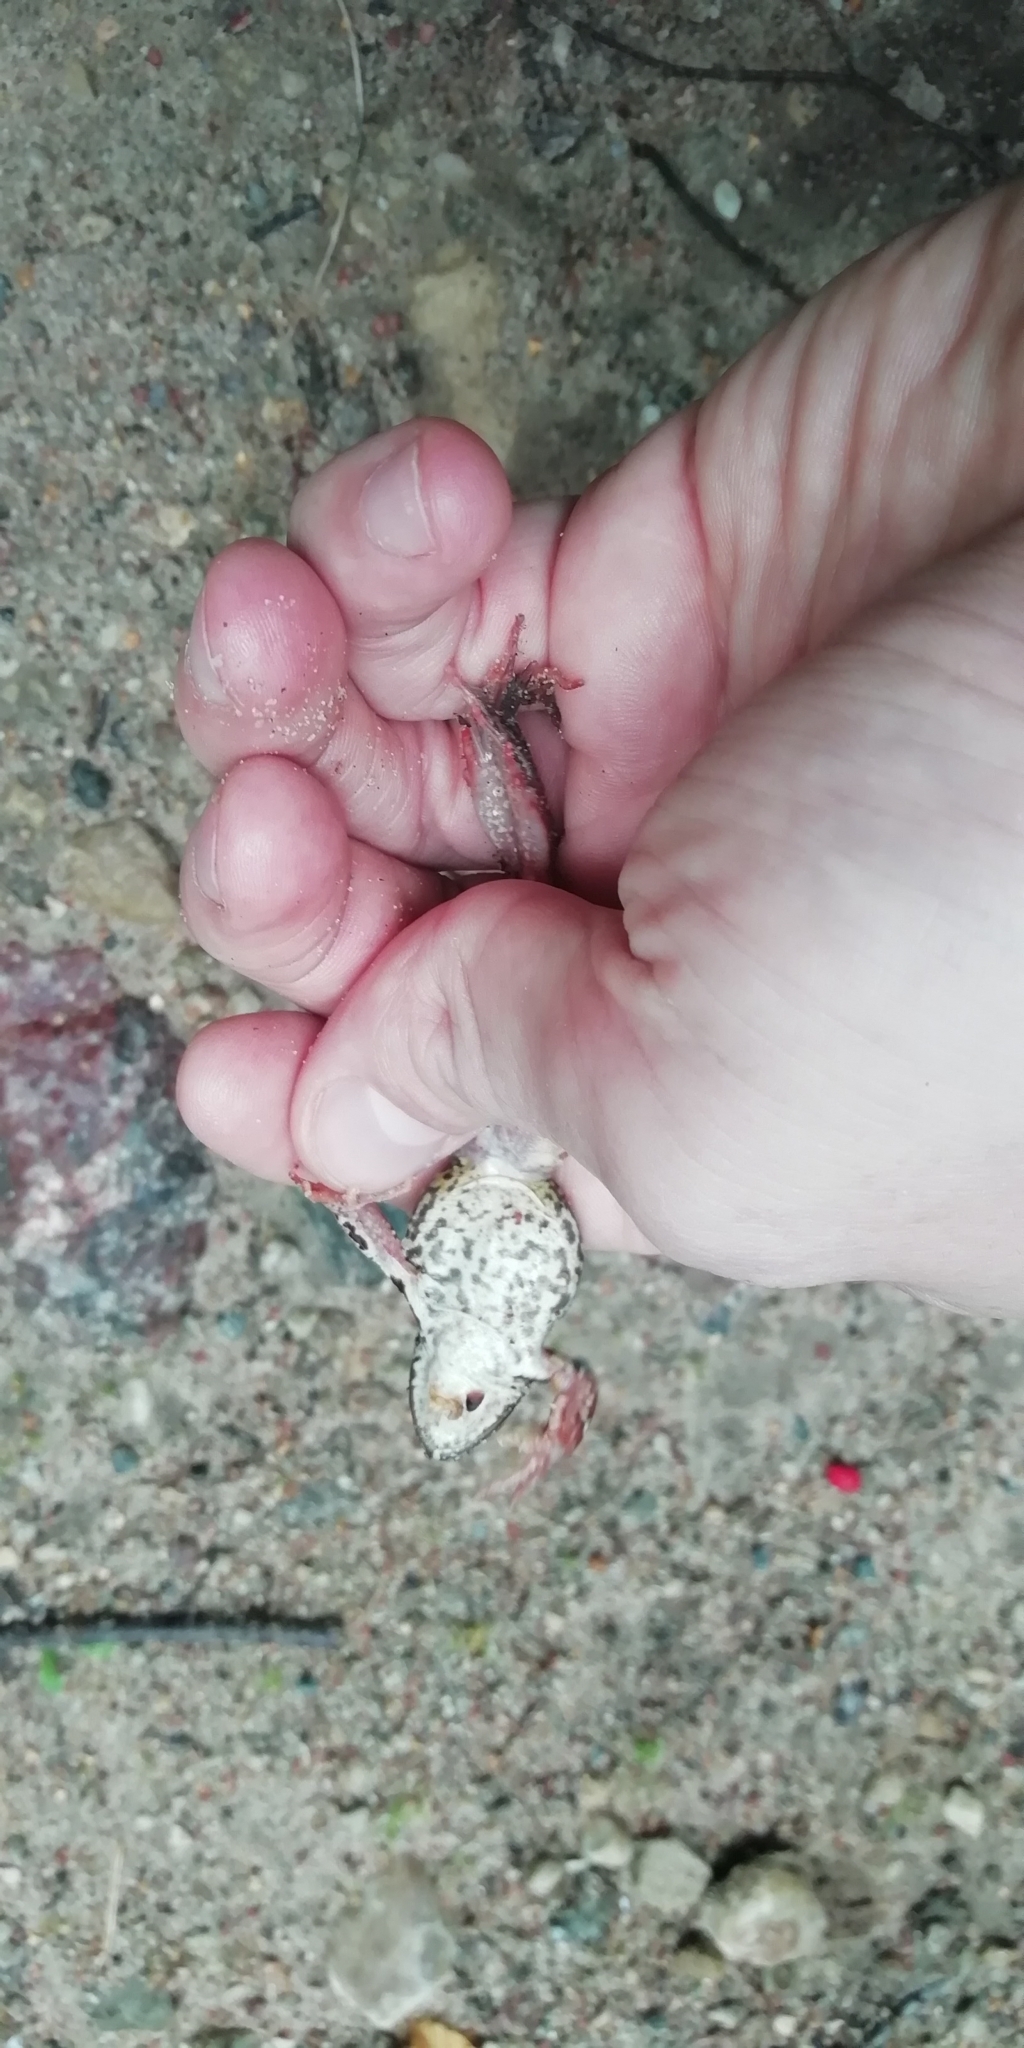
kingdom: Animalia
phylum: Chordata
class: Amphibia
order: Anura
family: Ranidae
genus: Rana
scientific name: Rana temporaria
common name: Common frog
